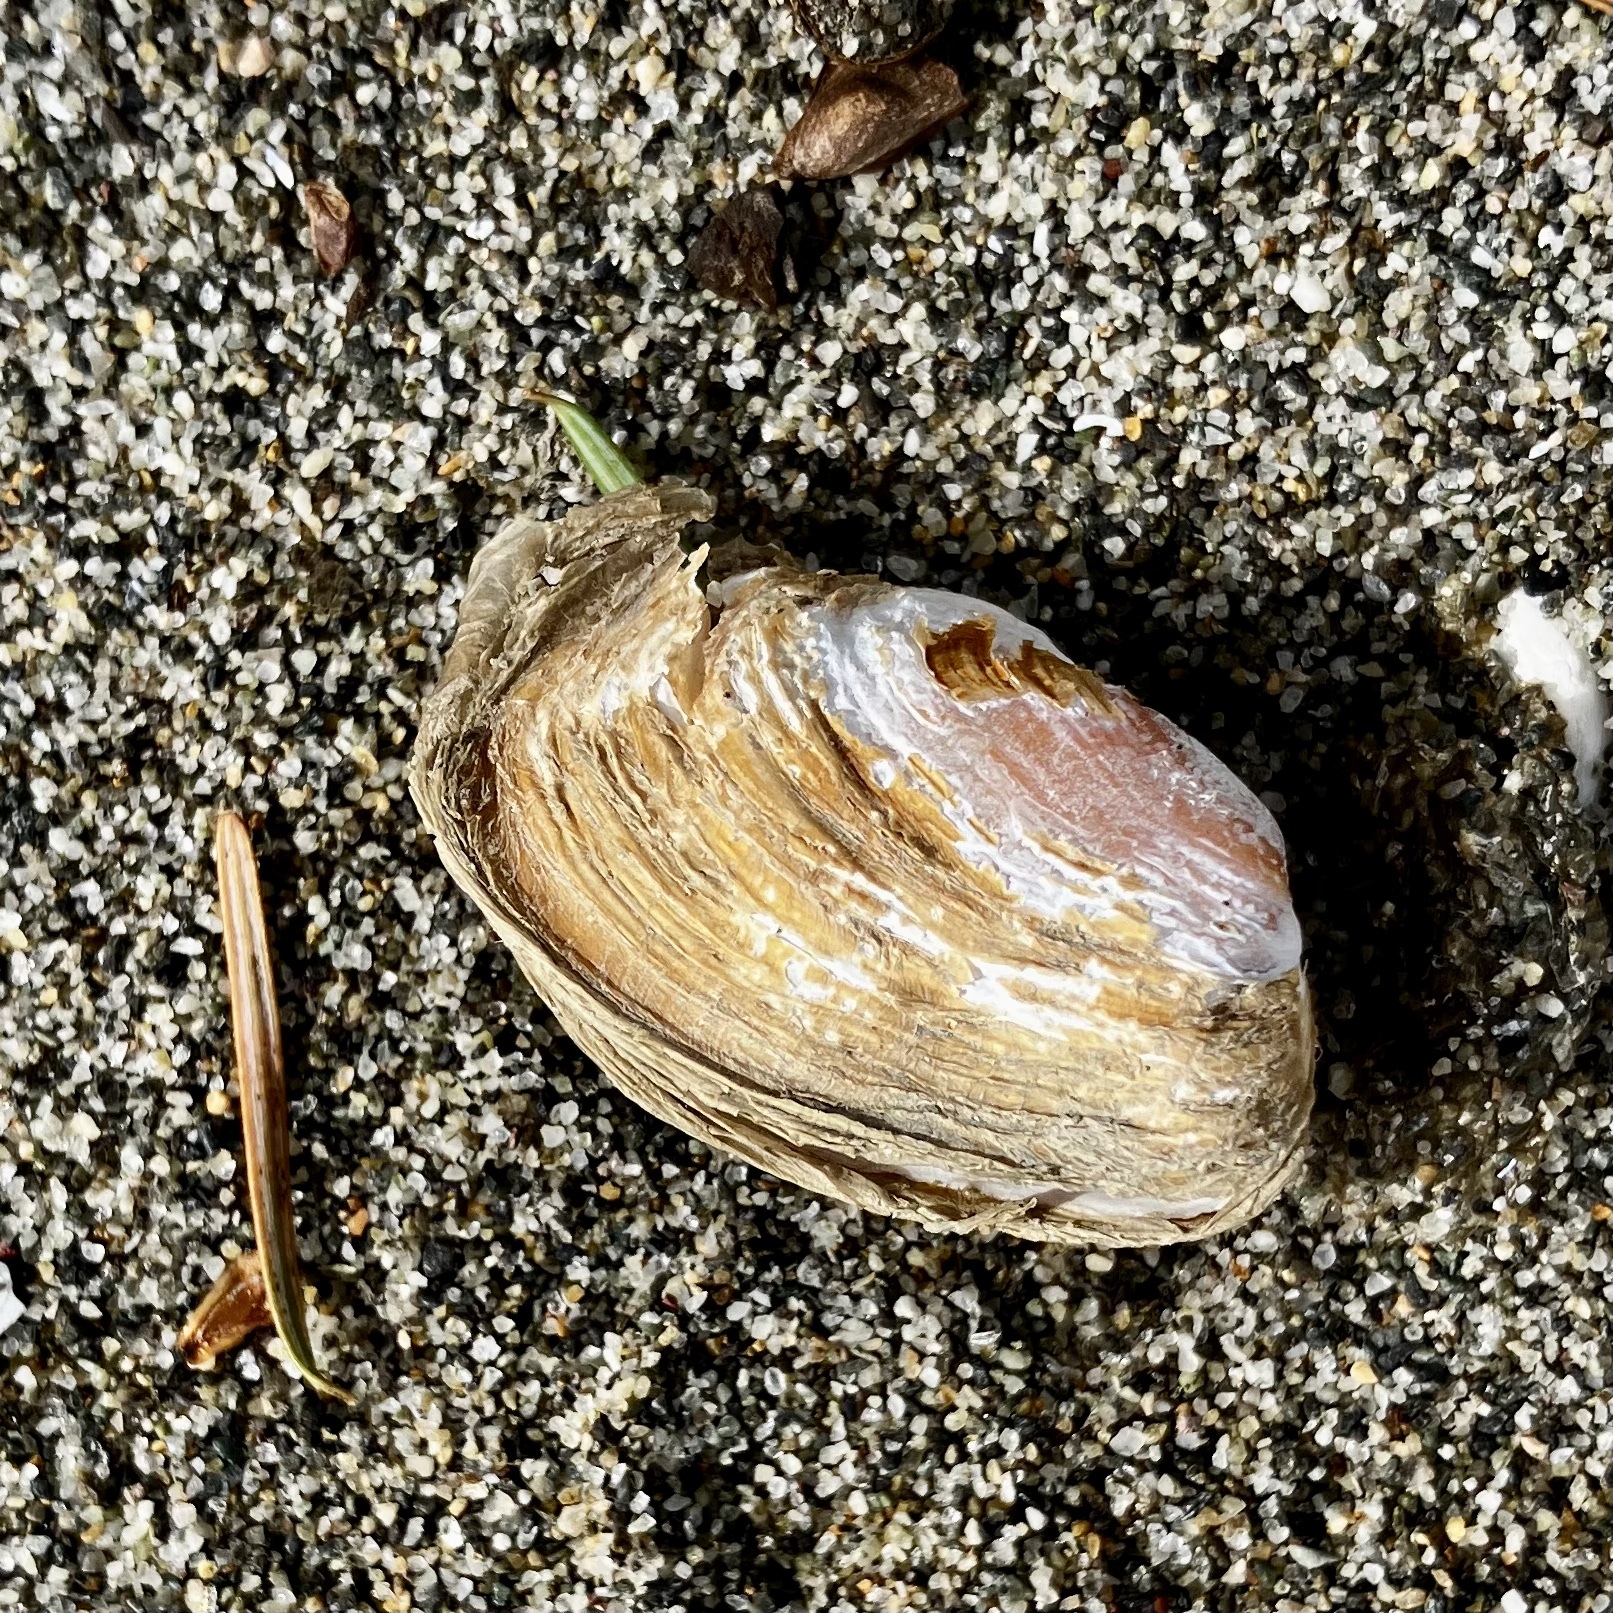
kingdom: Animalia
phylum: Mollusca
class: Bivalvia
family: Lyonsiidae
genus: Entodesma
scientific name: Entodesma navicula
